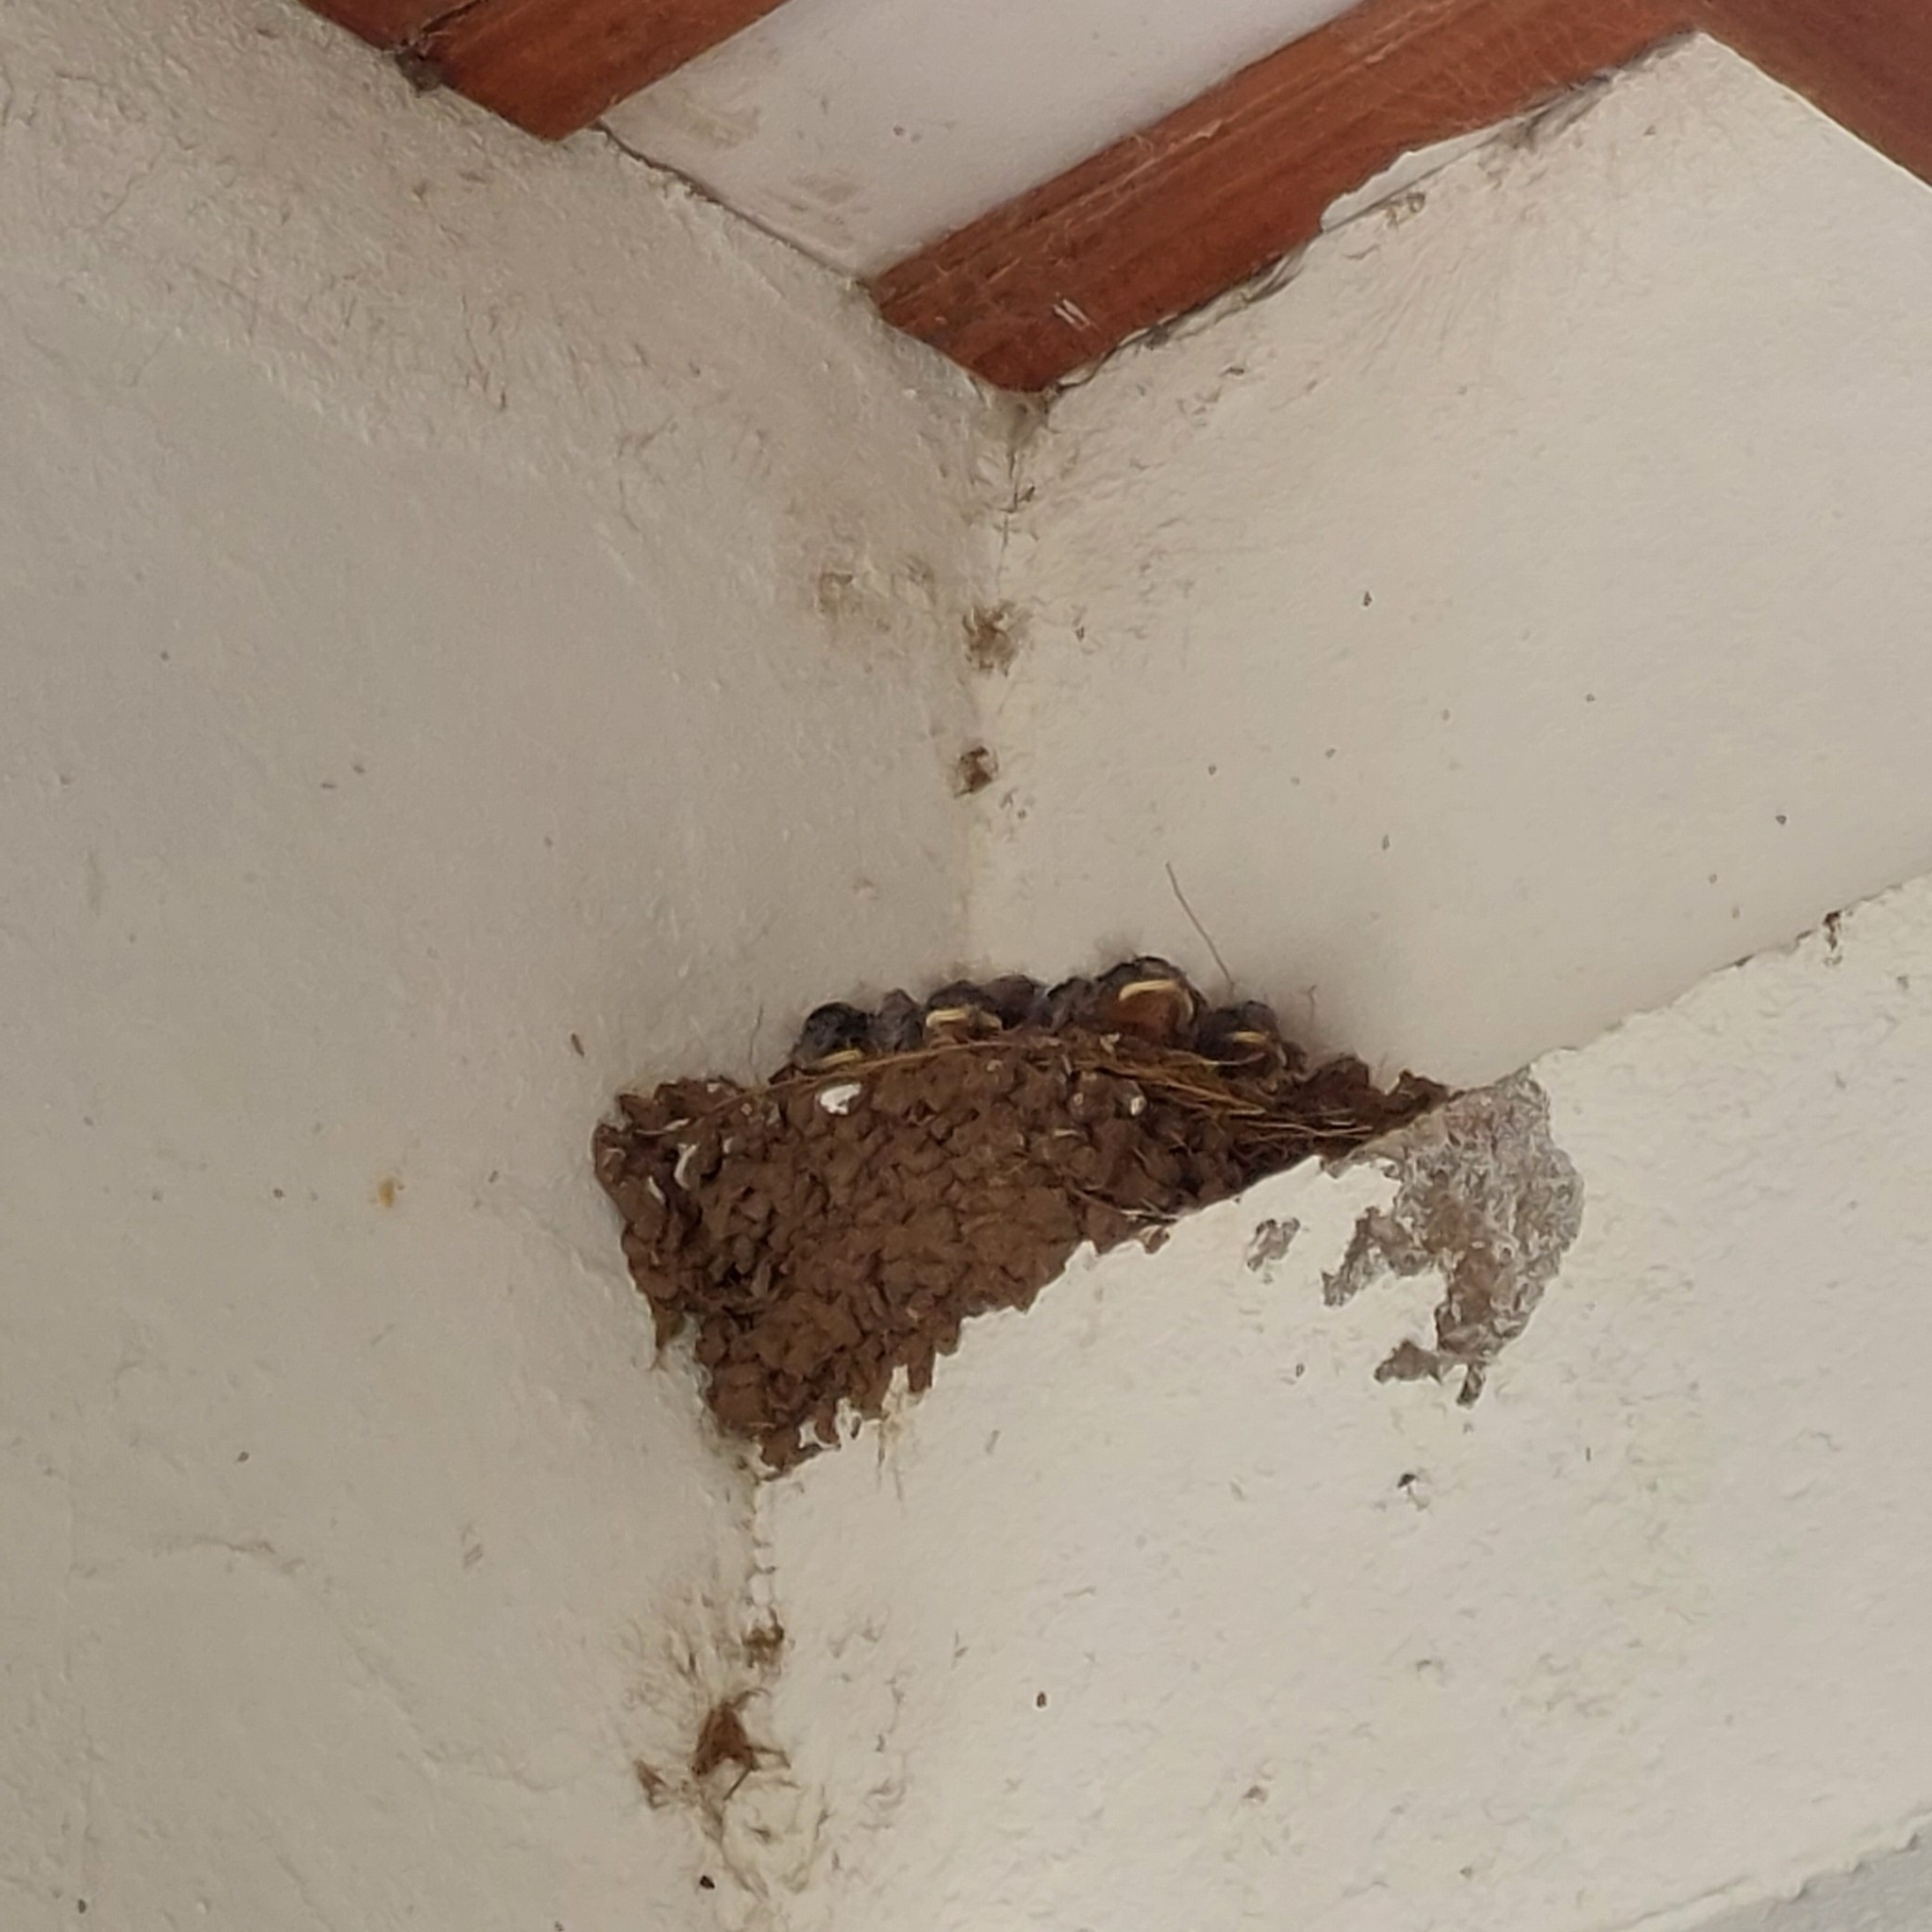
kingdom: Animalia
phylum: Chordata
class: Aves
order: Passeriformes
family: Hirundinidae
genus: Hirundo
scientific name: Hirundo rustica
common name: Barn swallow
